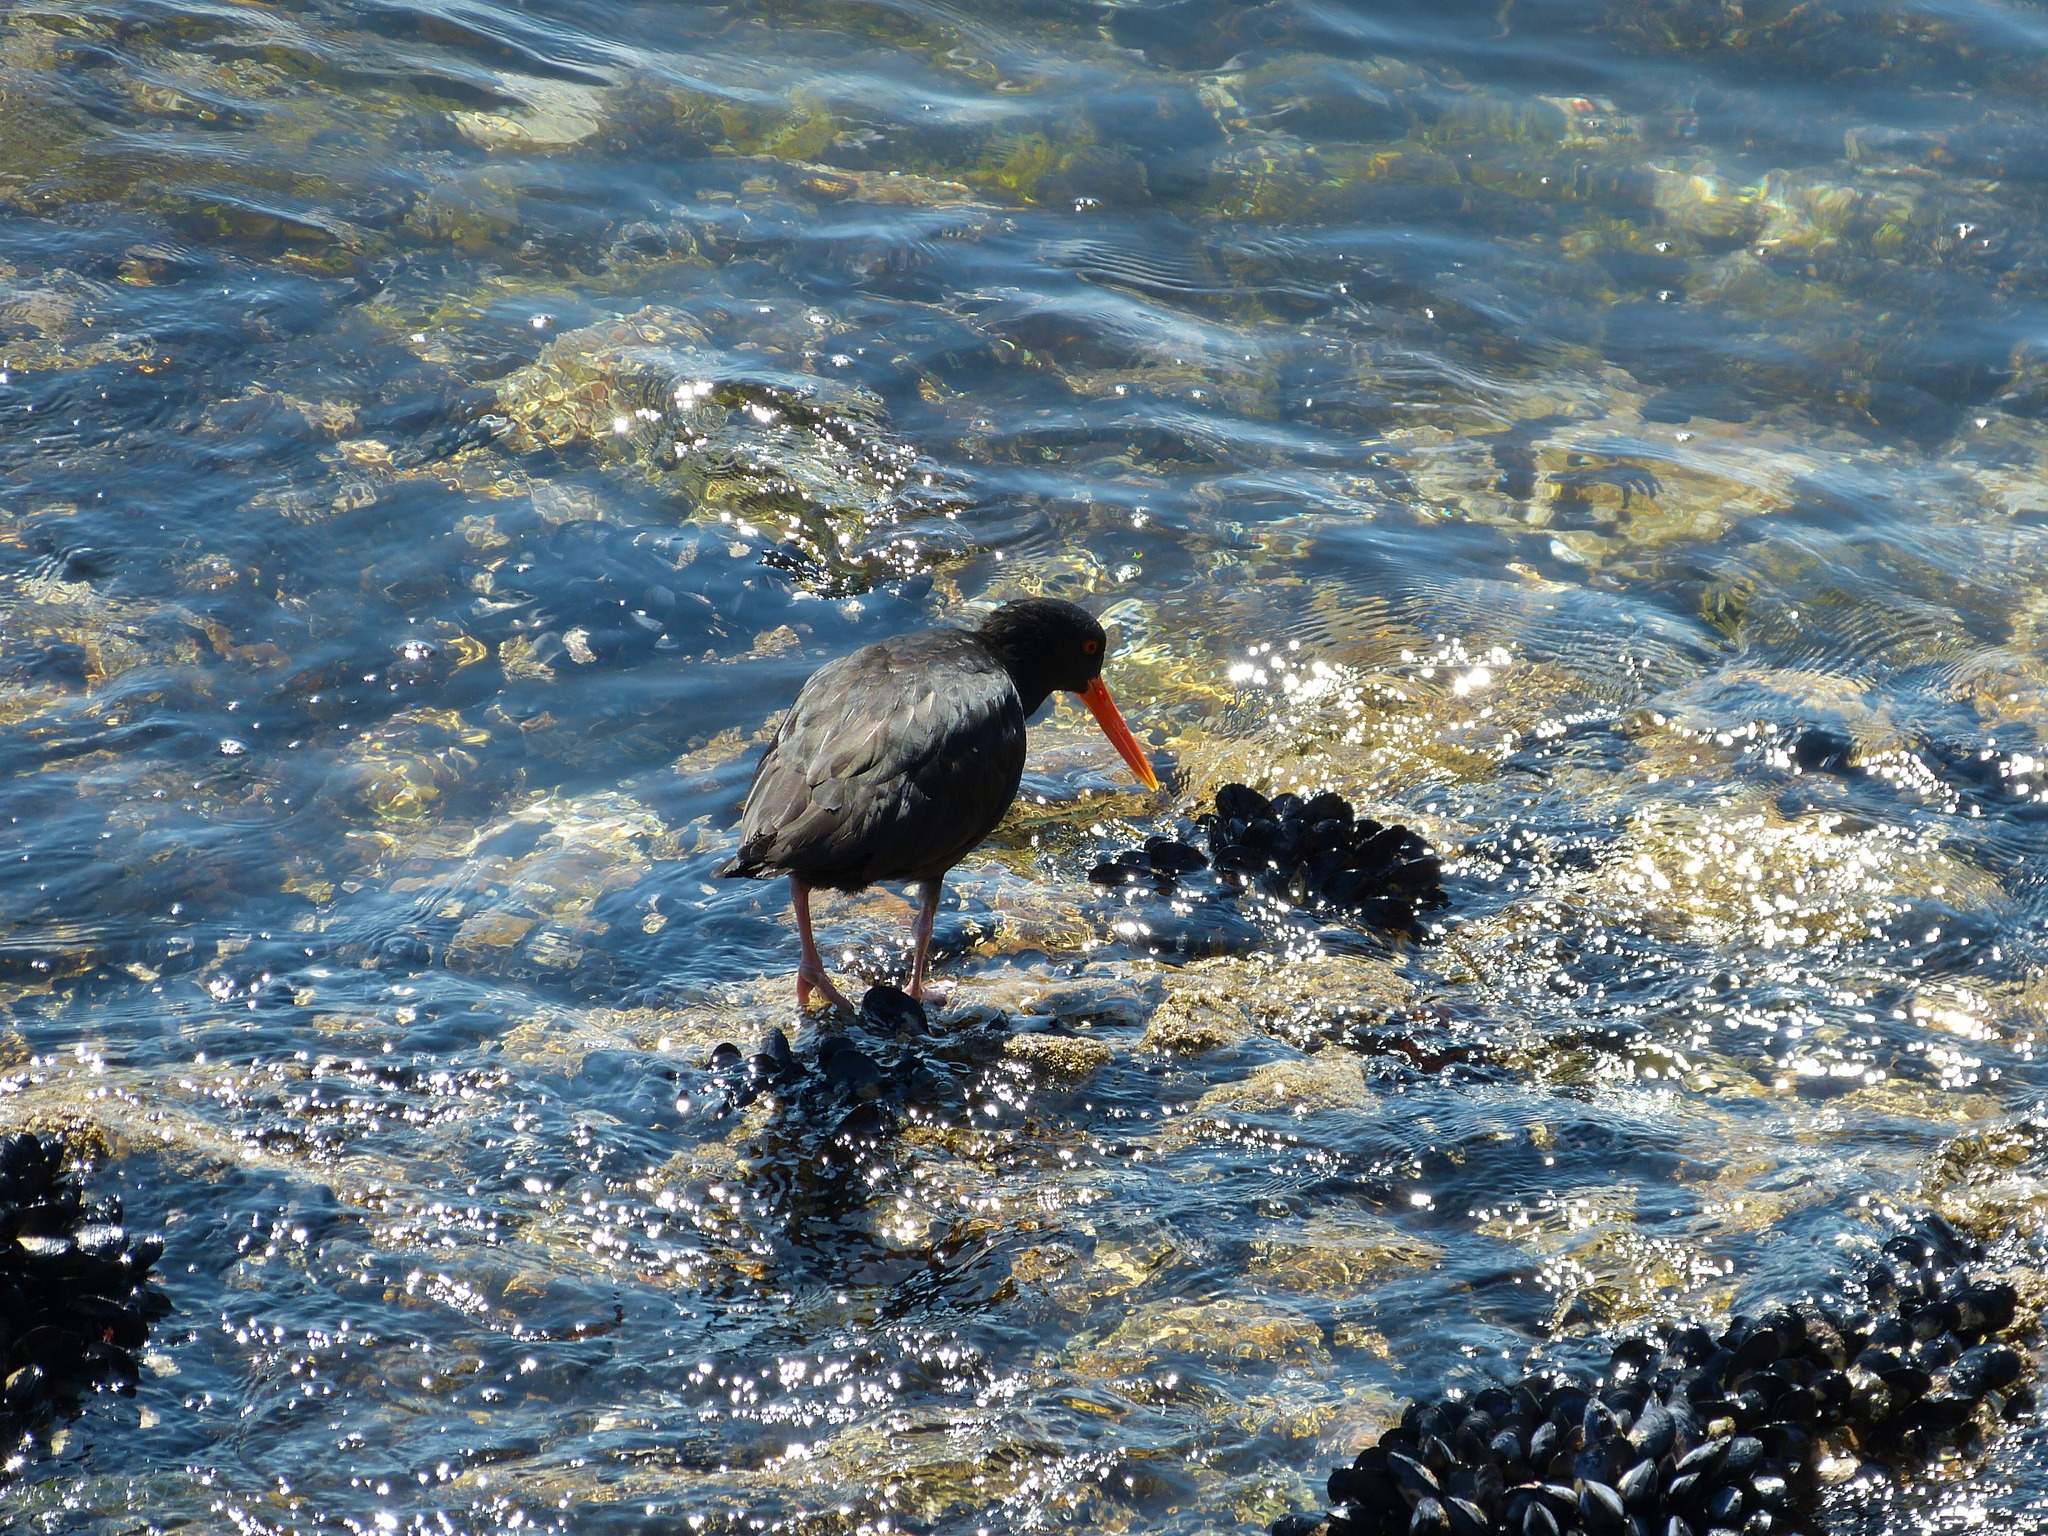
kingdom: Animalia
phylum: Chordata
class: Aves
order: Charadriiformes
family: Haematopodidae
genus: Haematopus
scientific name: Haematopus unicolor
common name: Variable oystercatcher
